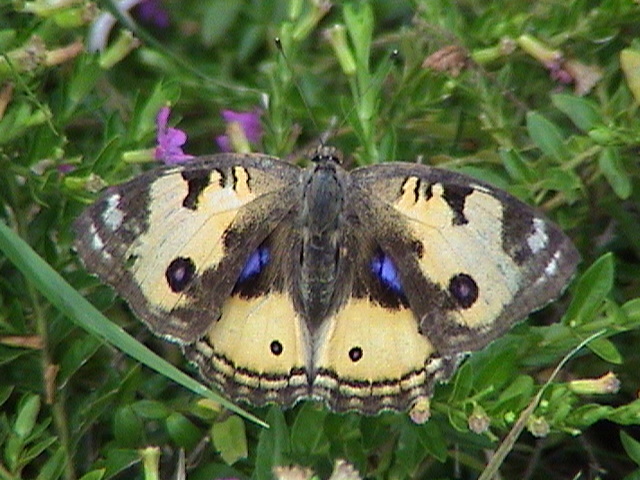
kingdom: Animalia
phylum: Arthropoda
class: Insecta
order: Lepidoptera
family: Nymphalidae
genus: Junonia
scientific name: Junonia hierta
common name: Yellow pansy
